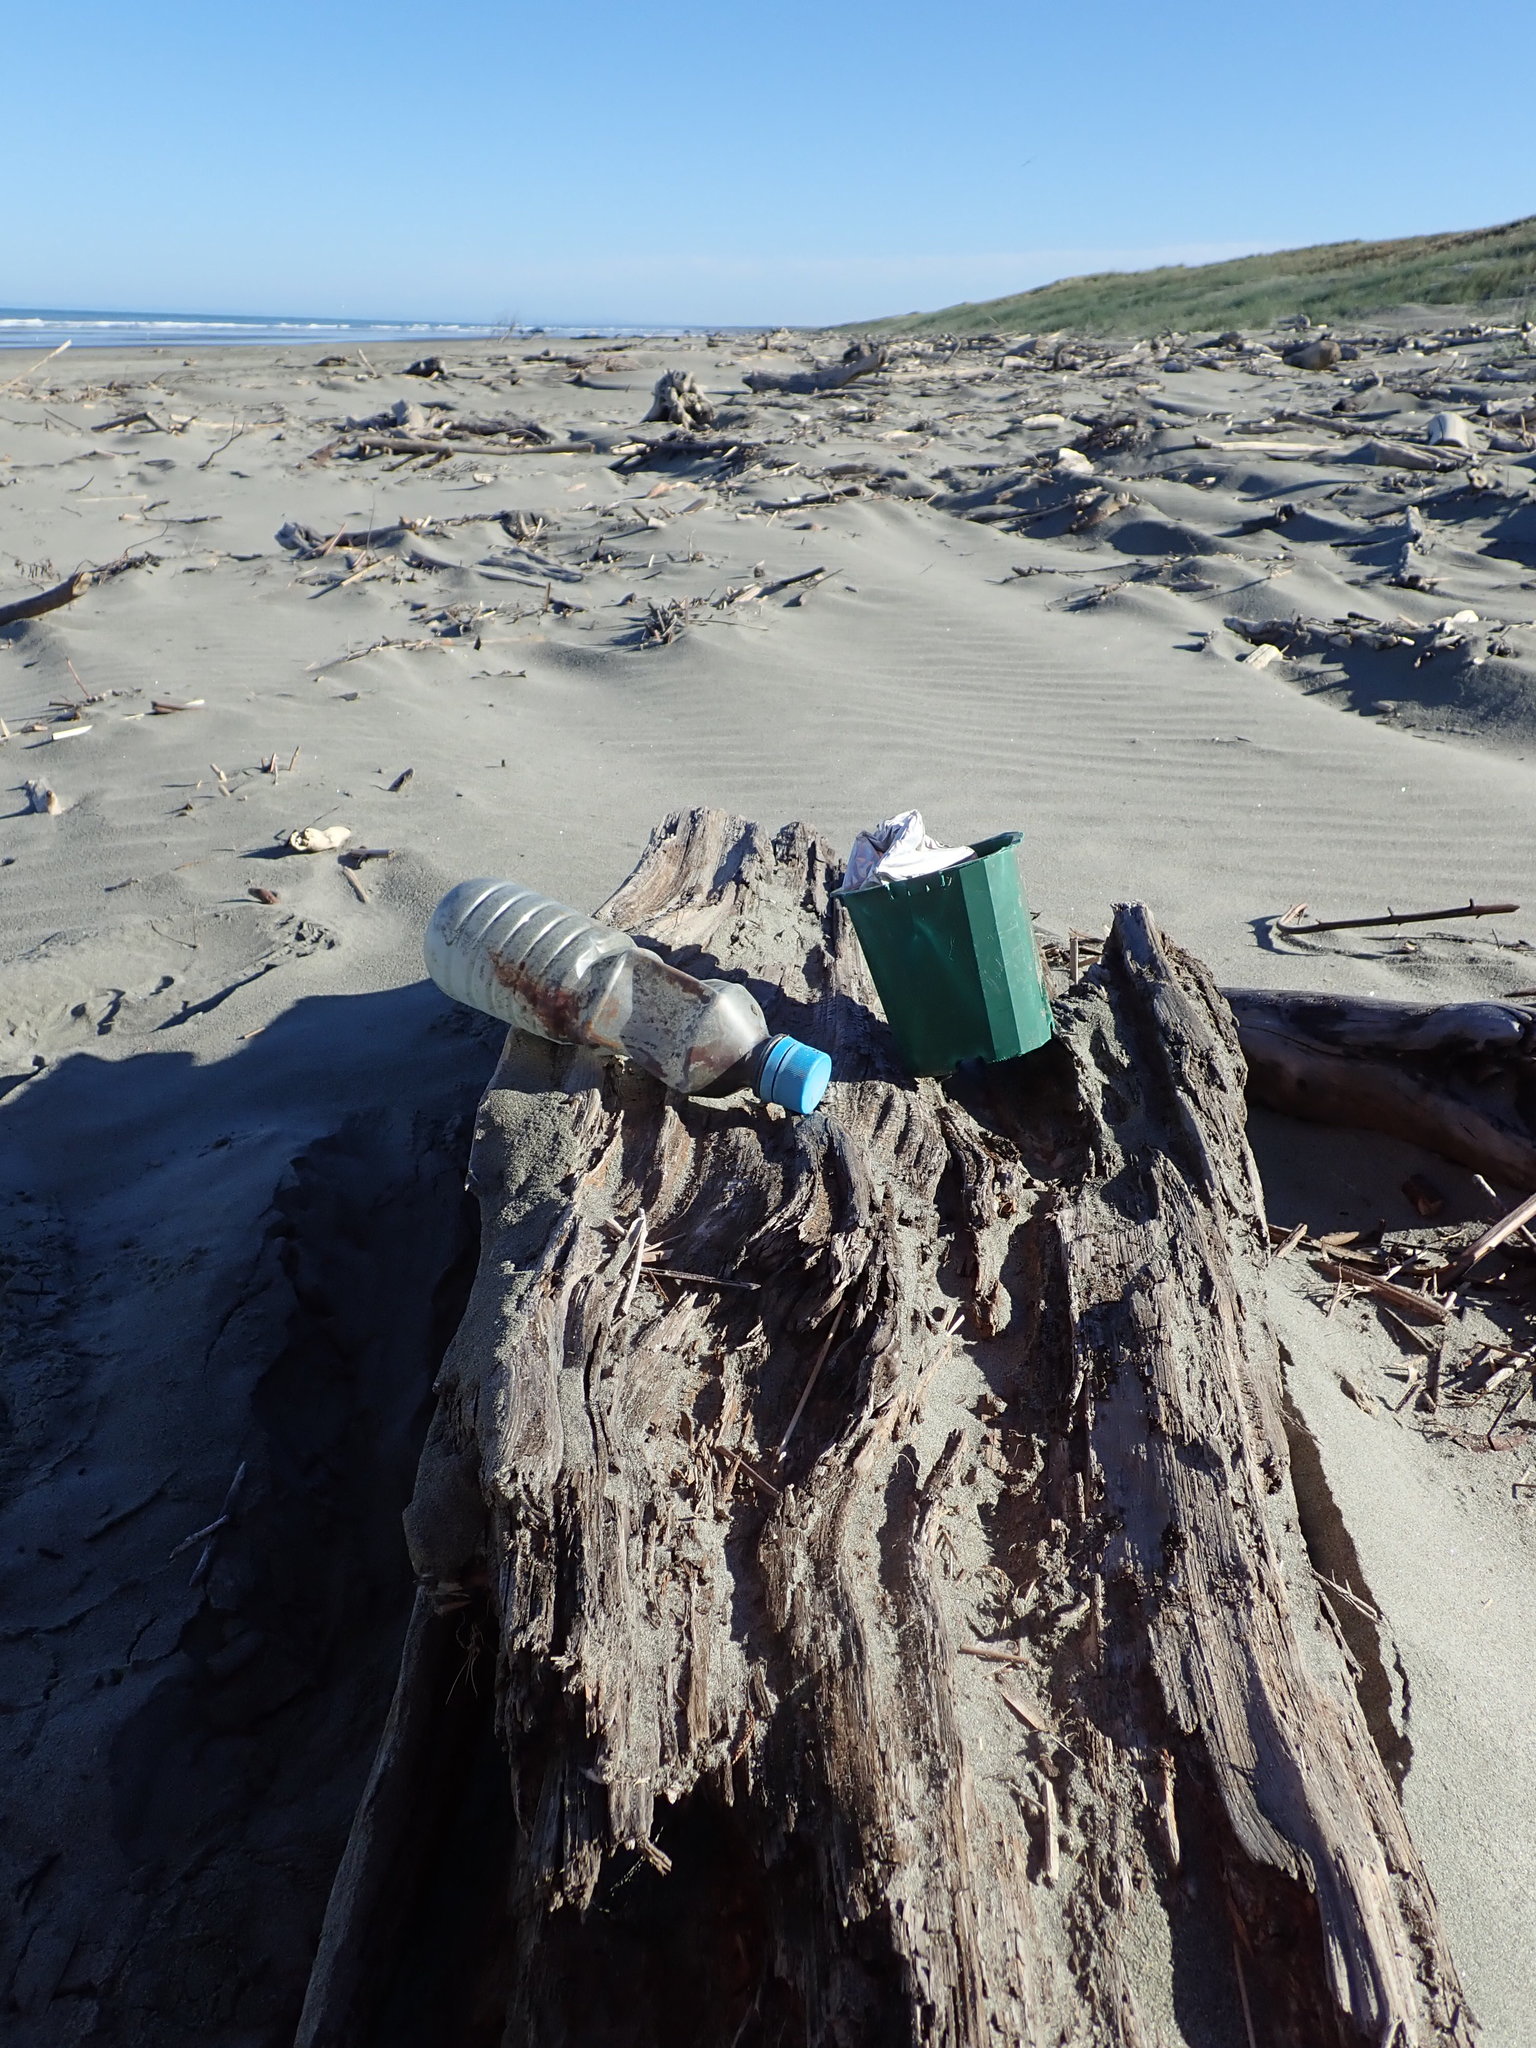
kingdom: Animalia
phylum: Arthropoda
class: Insecta
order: Coleoptera
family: Curculionidae
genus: Mesites
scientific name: Mesites pallidipennis
